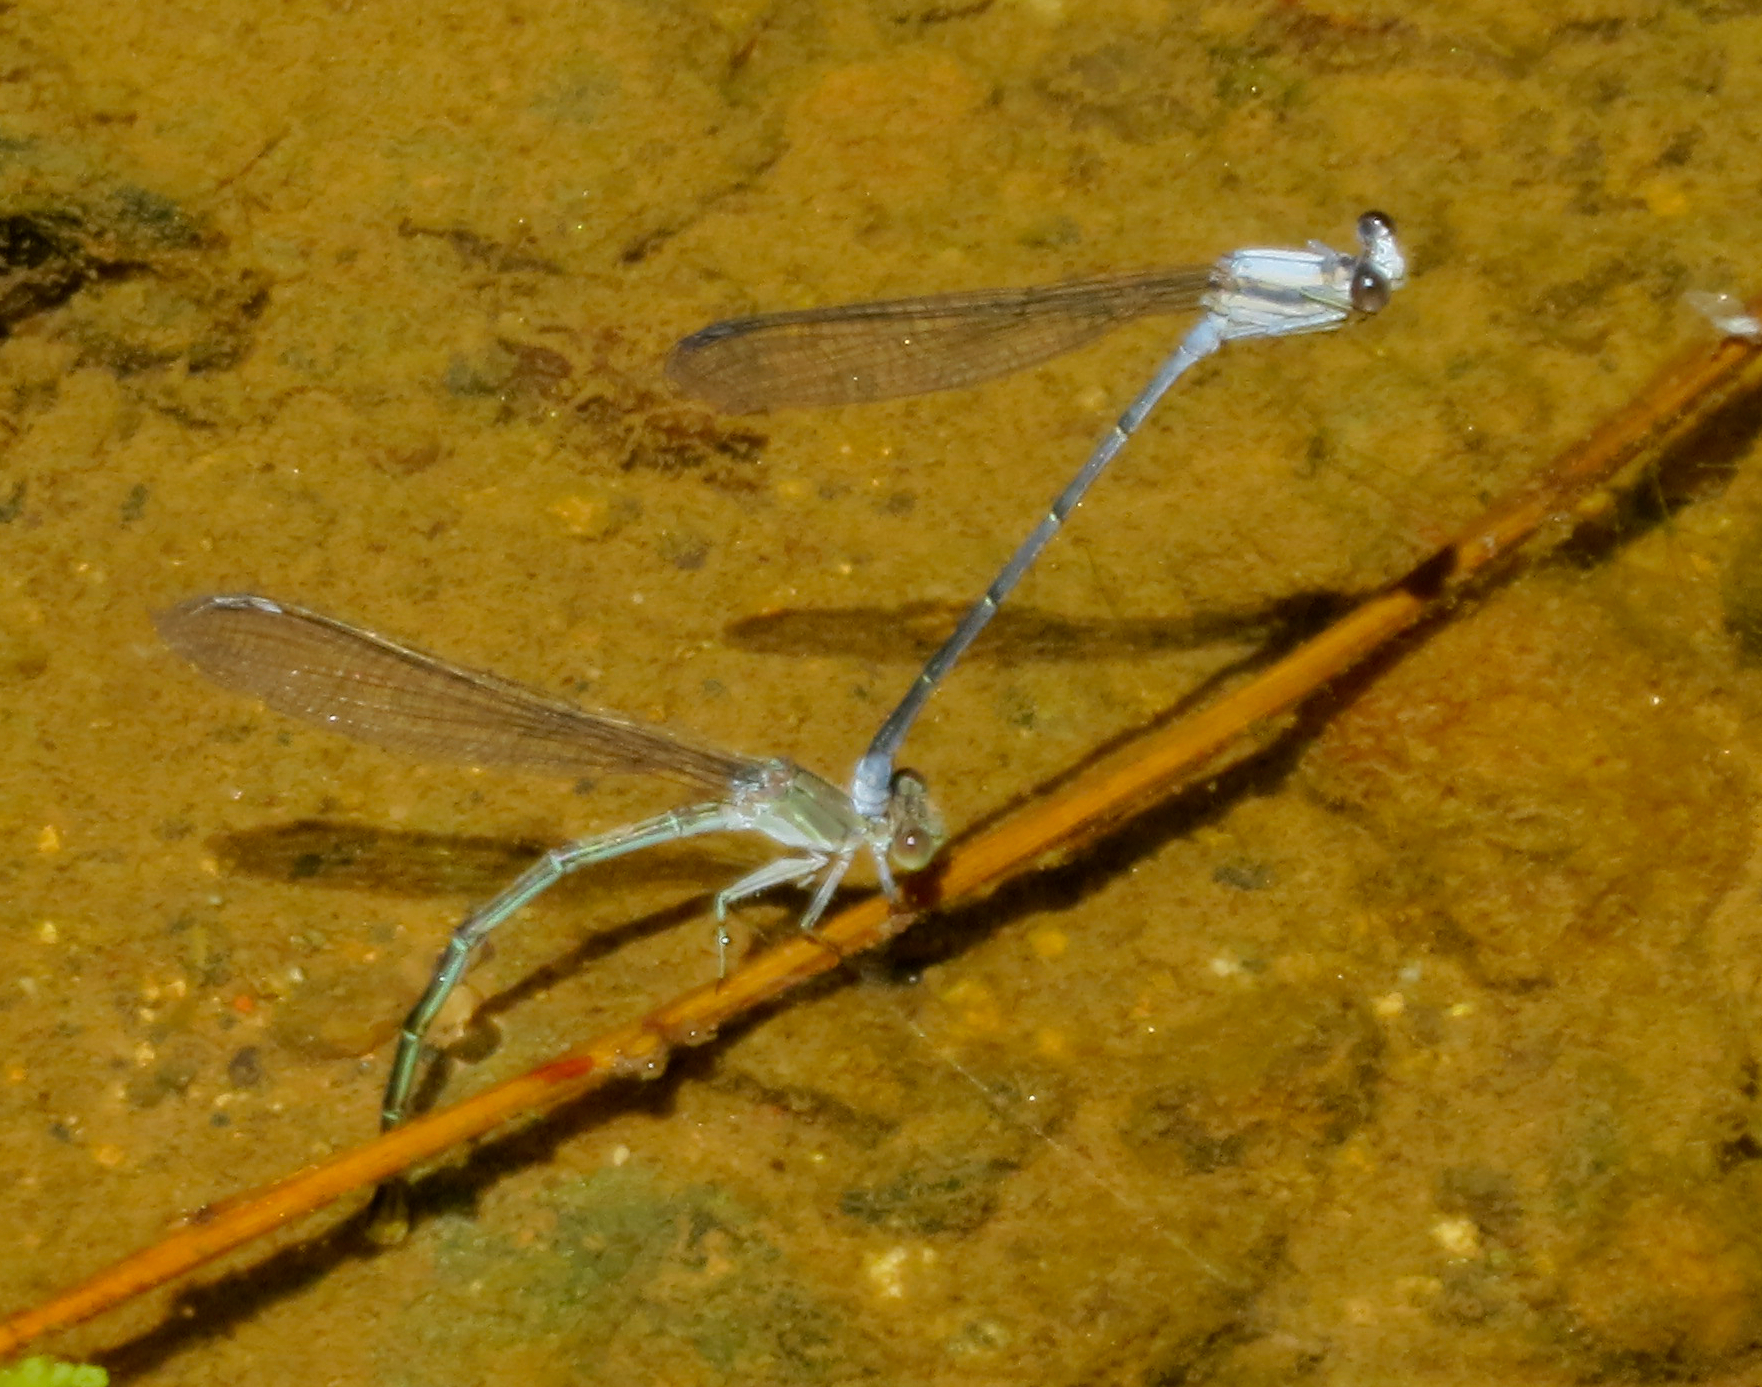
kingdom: Animalia
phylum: Arthropoda
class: Insecta
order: Odonata
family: Coenagrionidae
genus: Argia
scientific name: Argia moesta
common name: Powdered dancer
